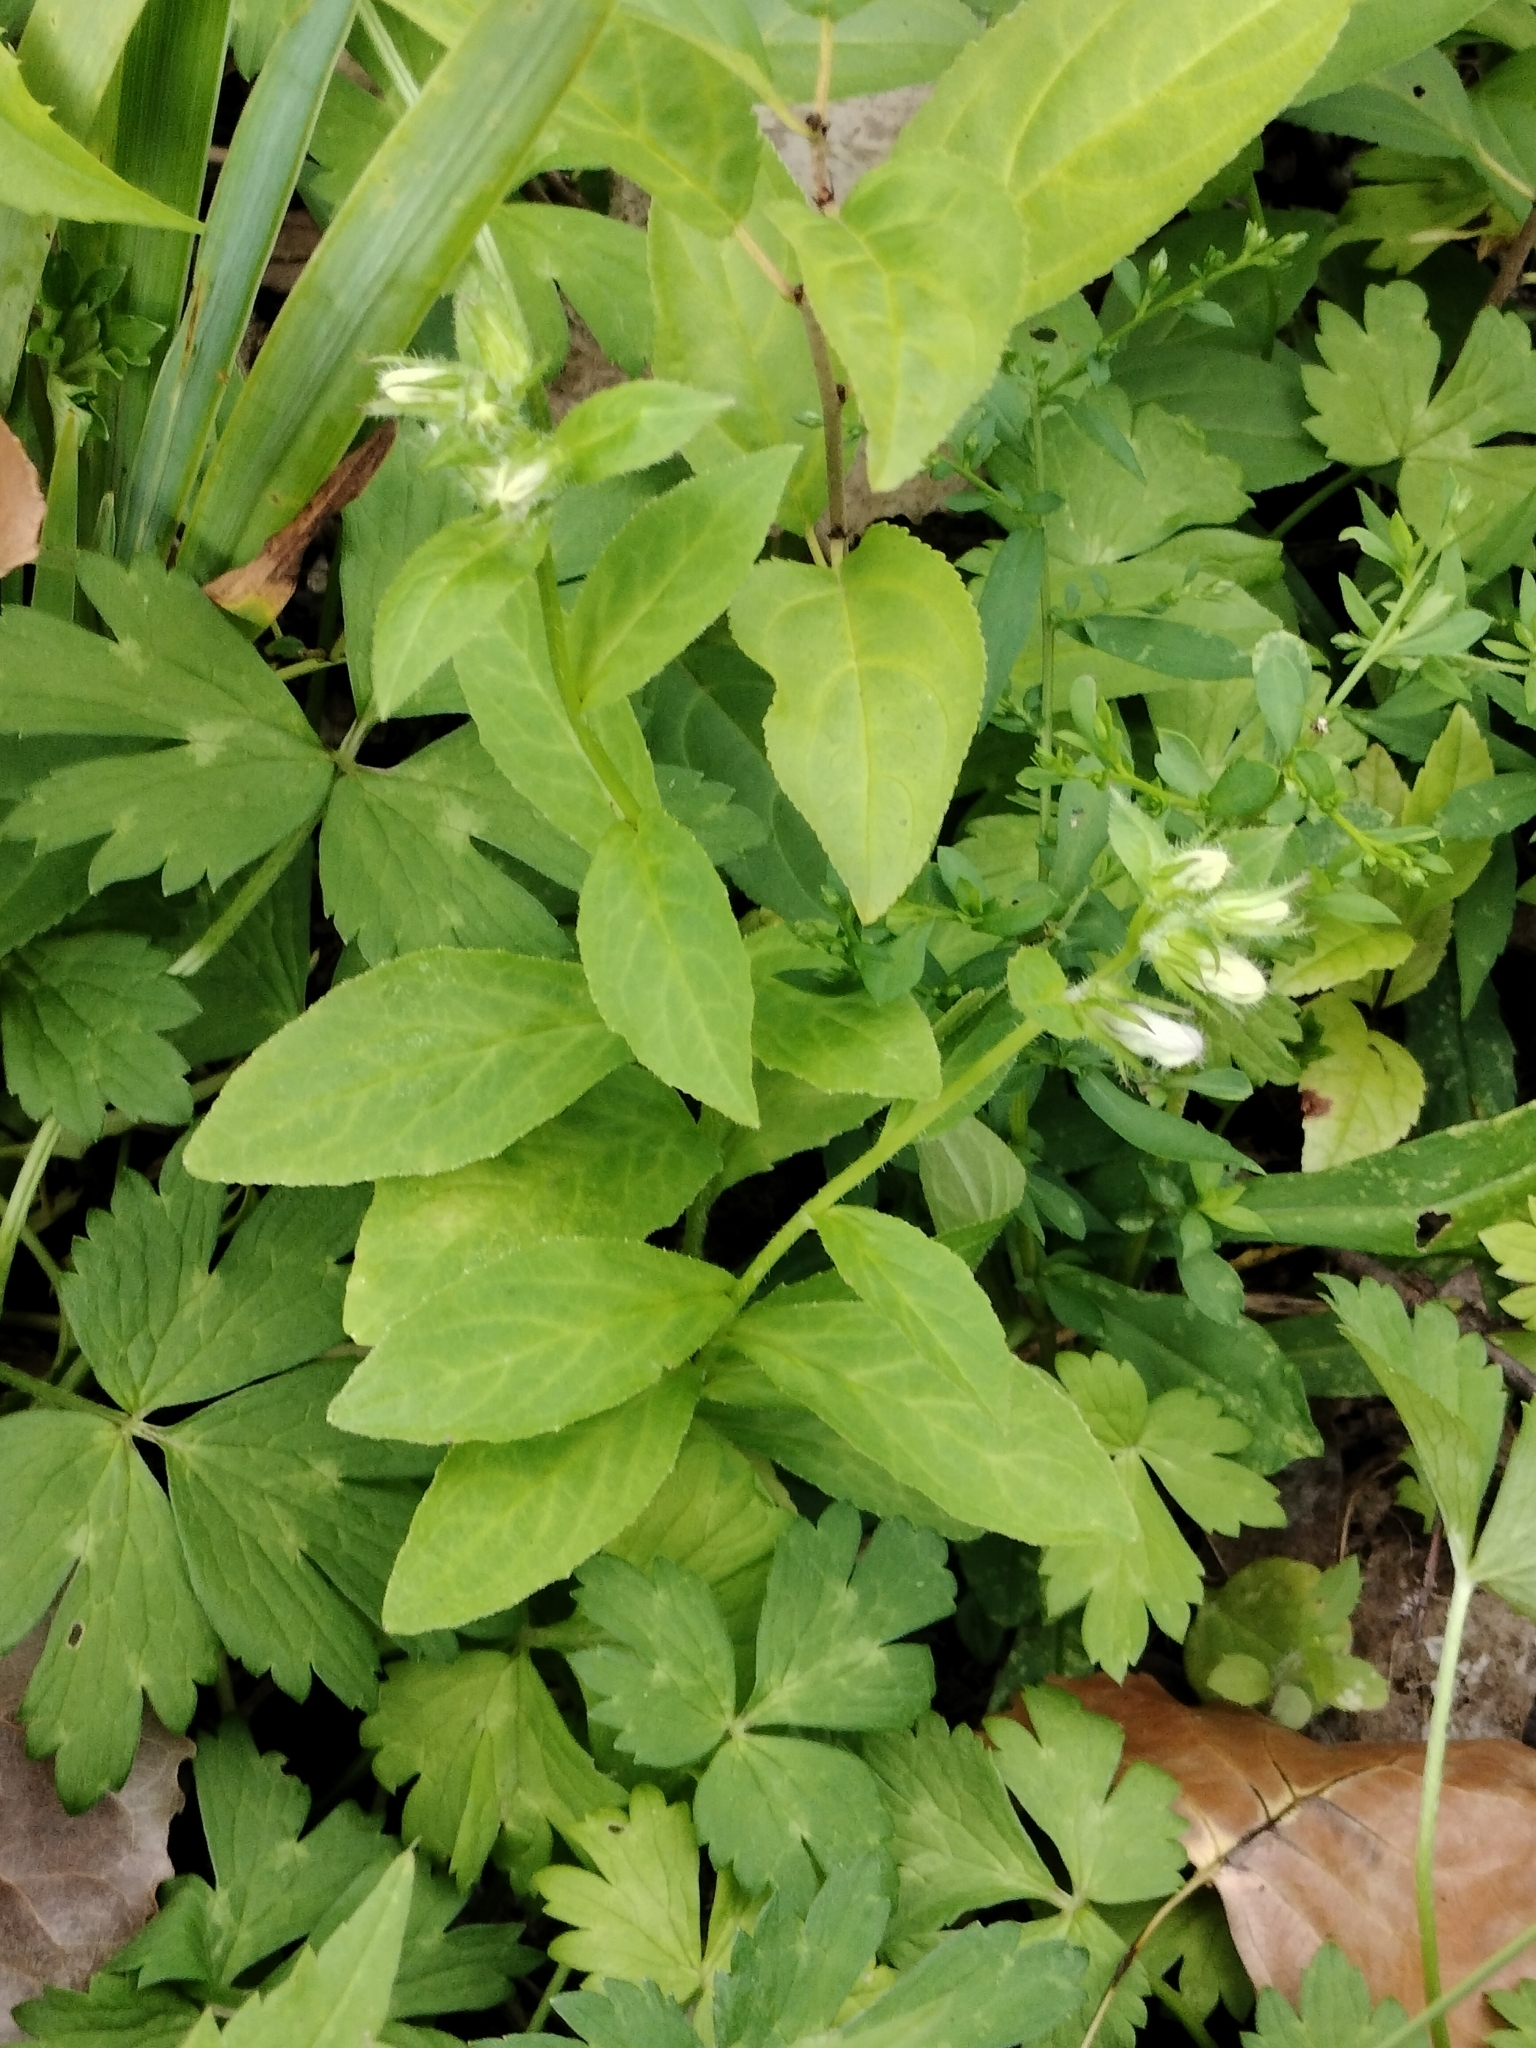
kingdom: Plantae
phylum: Tracheophyta
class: Magnoliopsida
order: Asterales
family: Campanulaceae
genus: Lobelia
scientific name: Lobelia siphilitica
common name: Great lobelia
